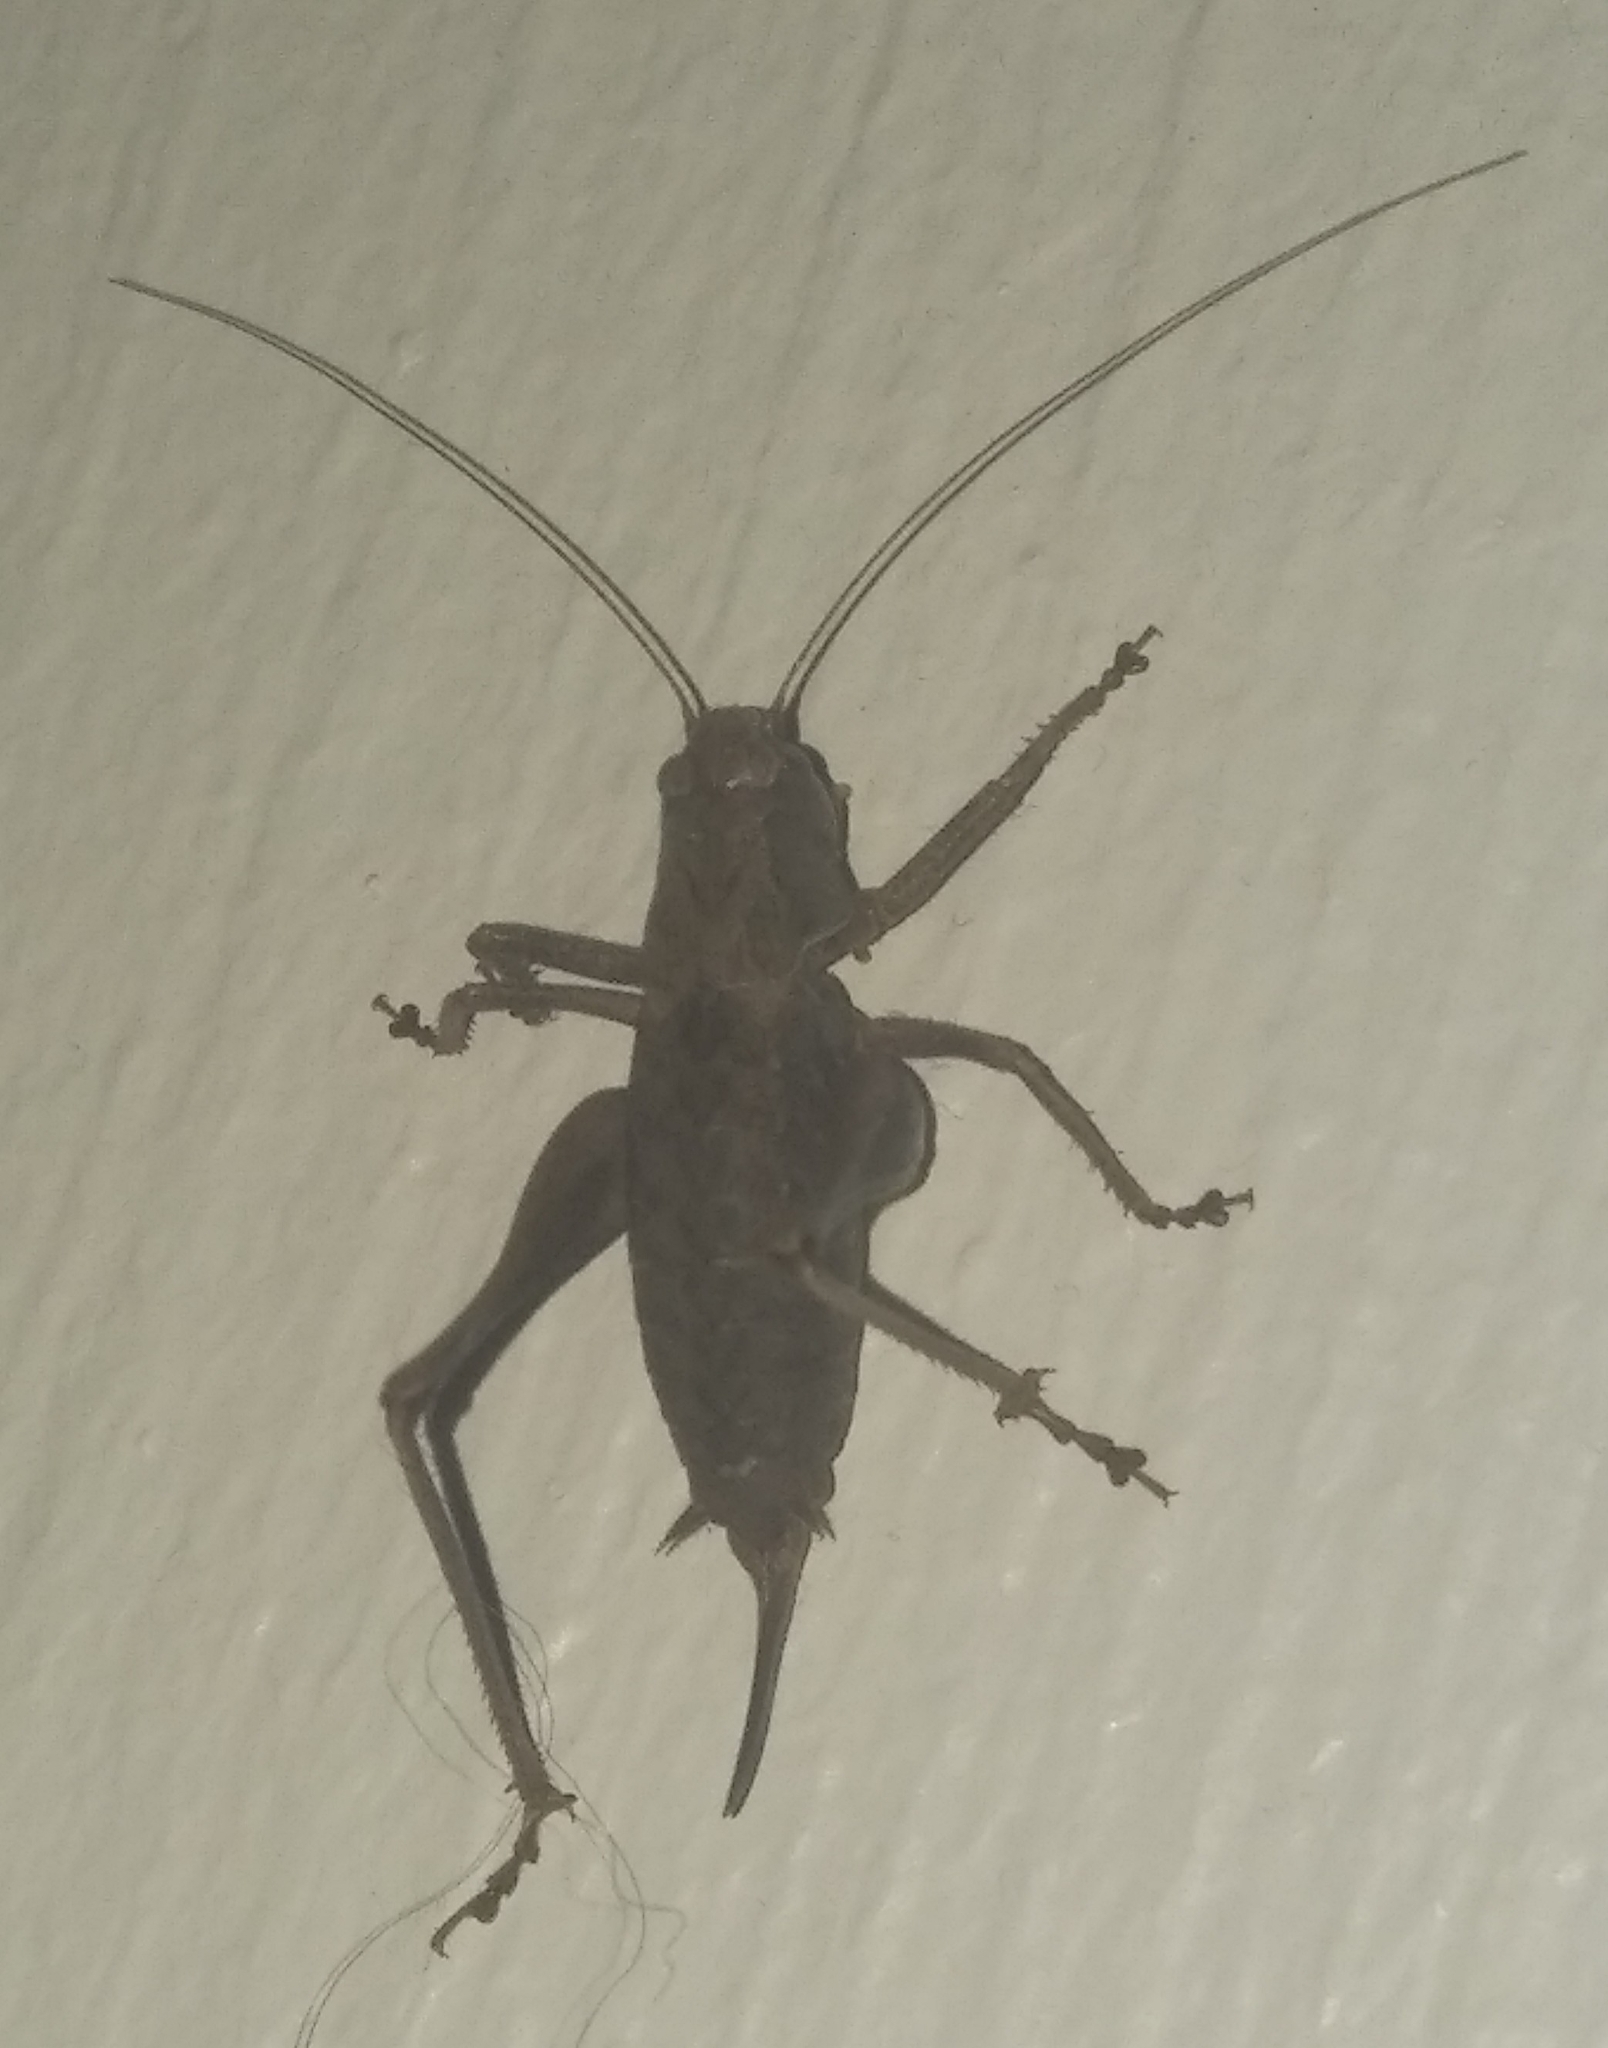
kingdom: Animalia
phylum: Arthropoda
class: Insecta
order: Orthoptera
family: Tettigoniidae
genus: Pholidoptera
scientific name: Pholidoptera griseoaptera
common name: Dark bush-cricket
